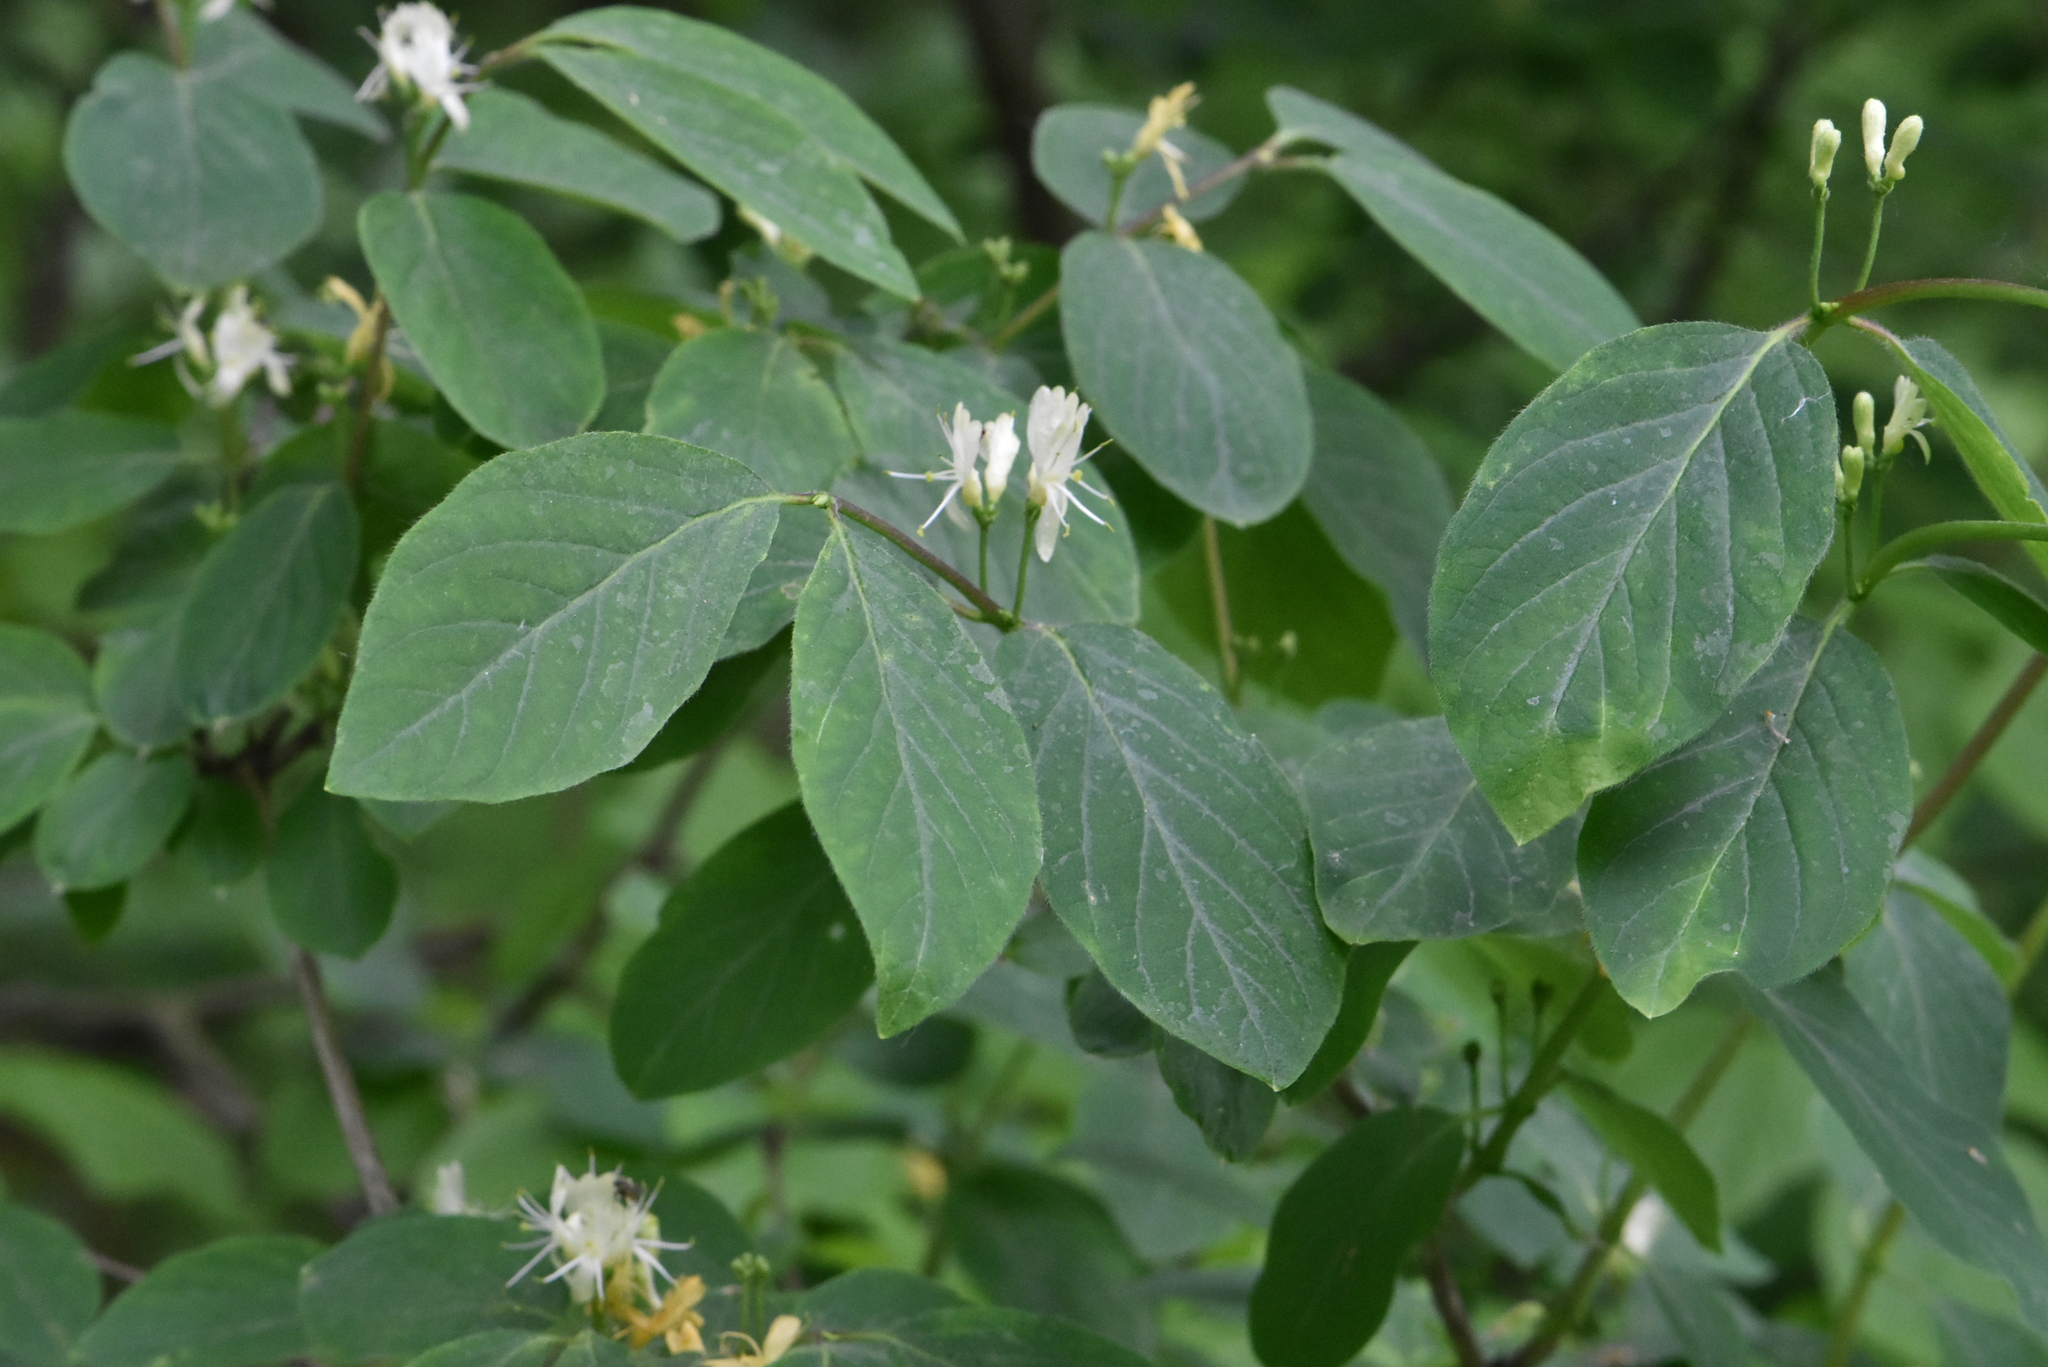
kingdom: Plantae
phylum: Tracheophyta
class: Magnoliopsida
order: Dipsacales
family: Caprifoliaceae
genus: Lonicera
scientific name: Lonicera xylosteum
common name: Fly honeysuckle
